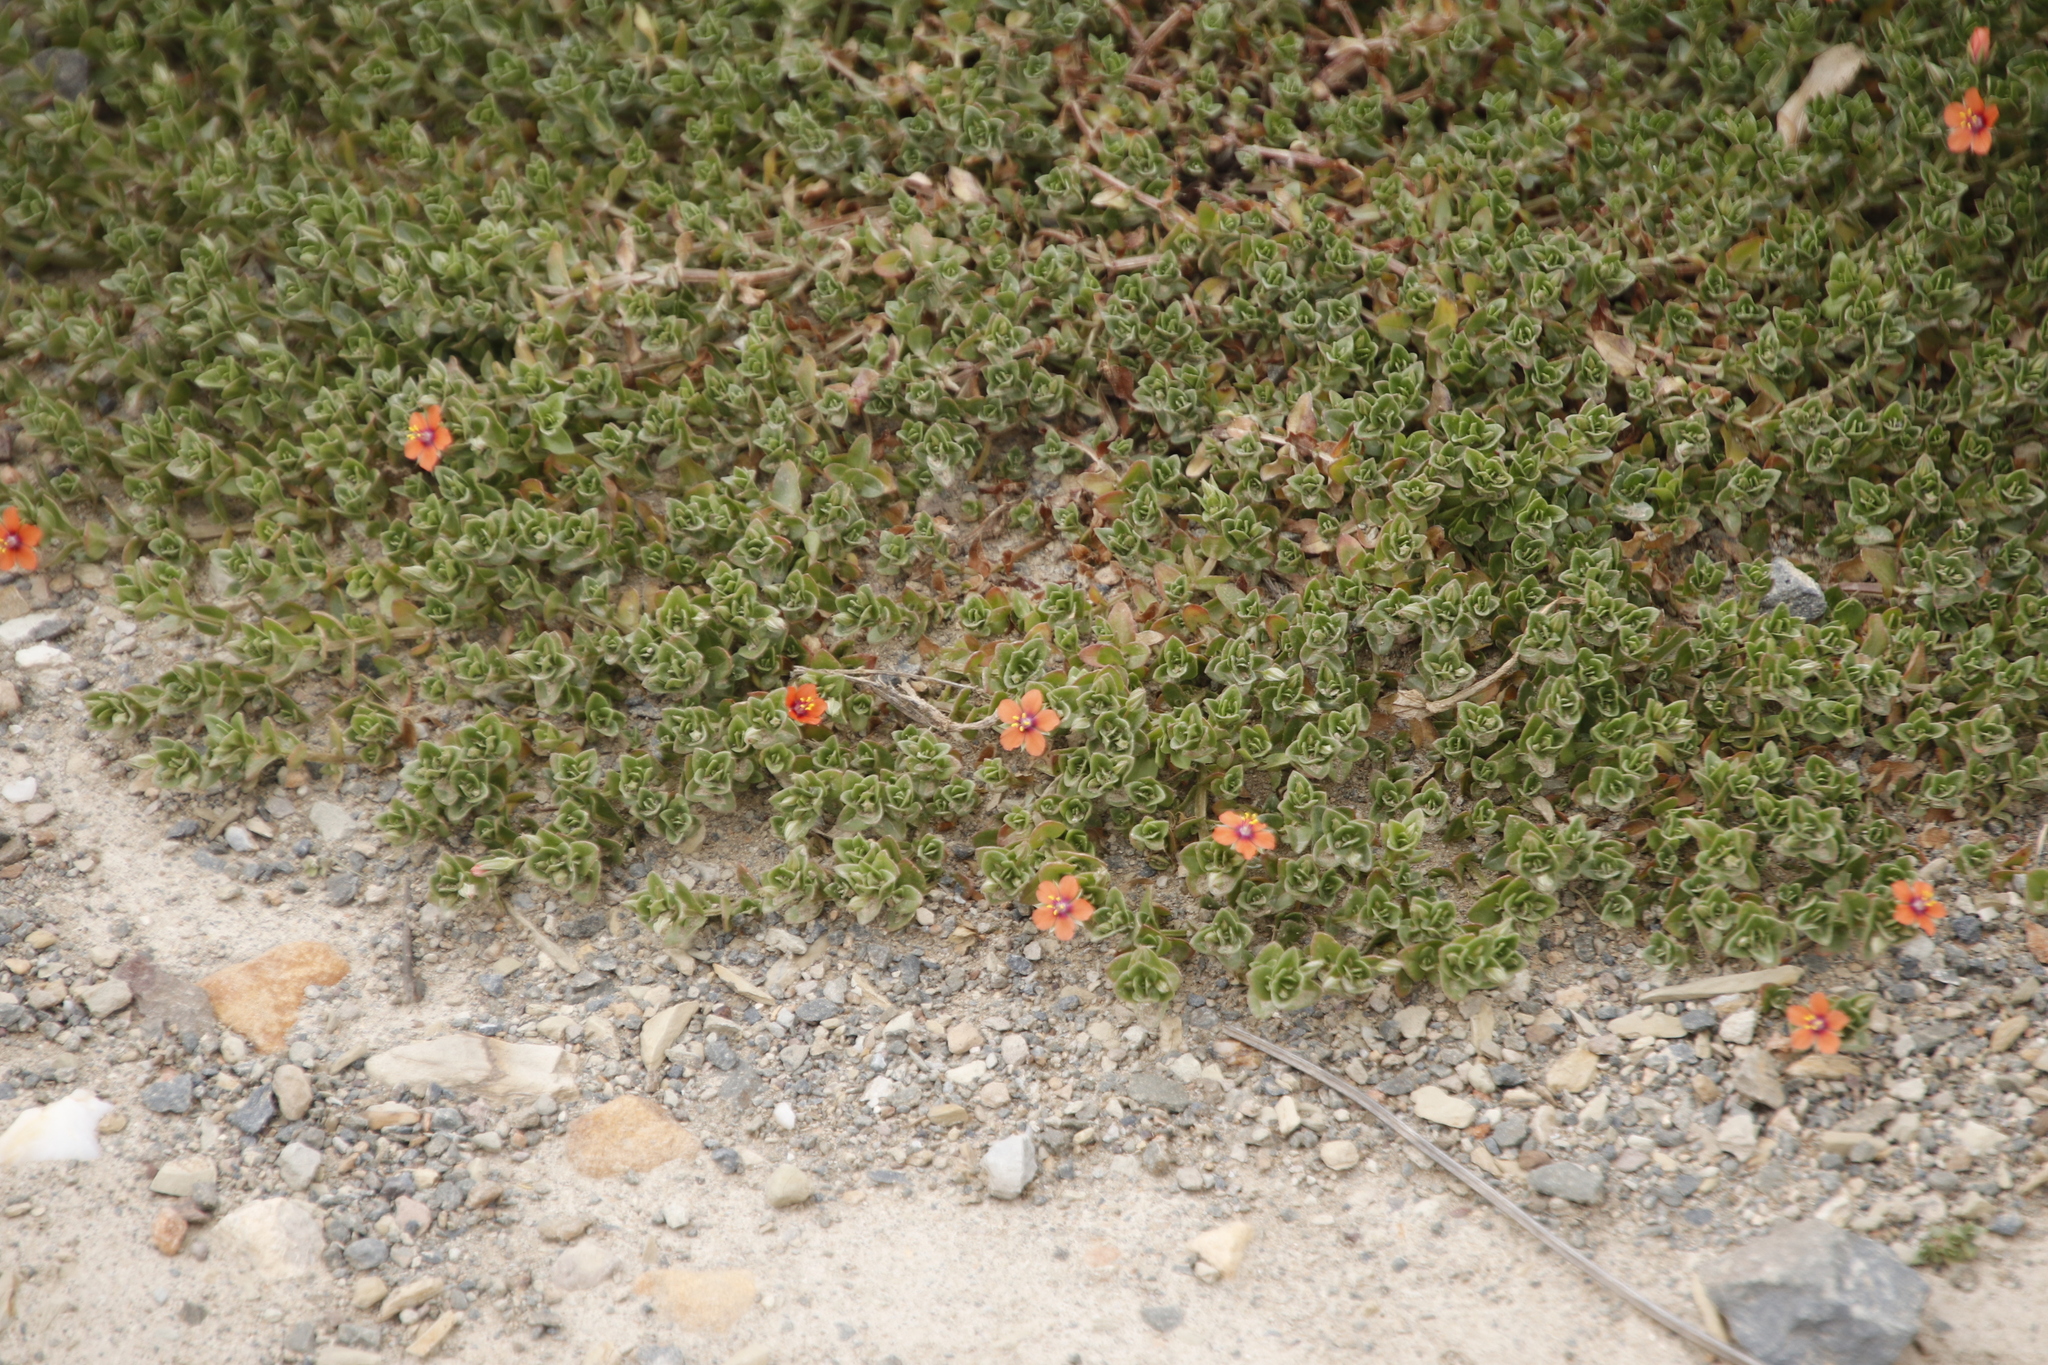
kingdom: Plantae
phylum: Tracheophyta
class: Magnoliopsida
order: Ericales
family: Primulaceae
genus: Lysimachia
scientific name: Lysimachia arvensis
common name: Scarlet pimpernel
